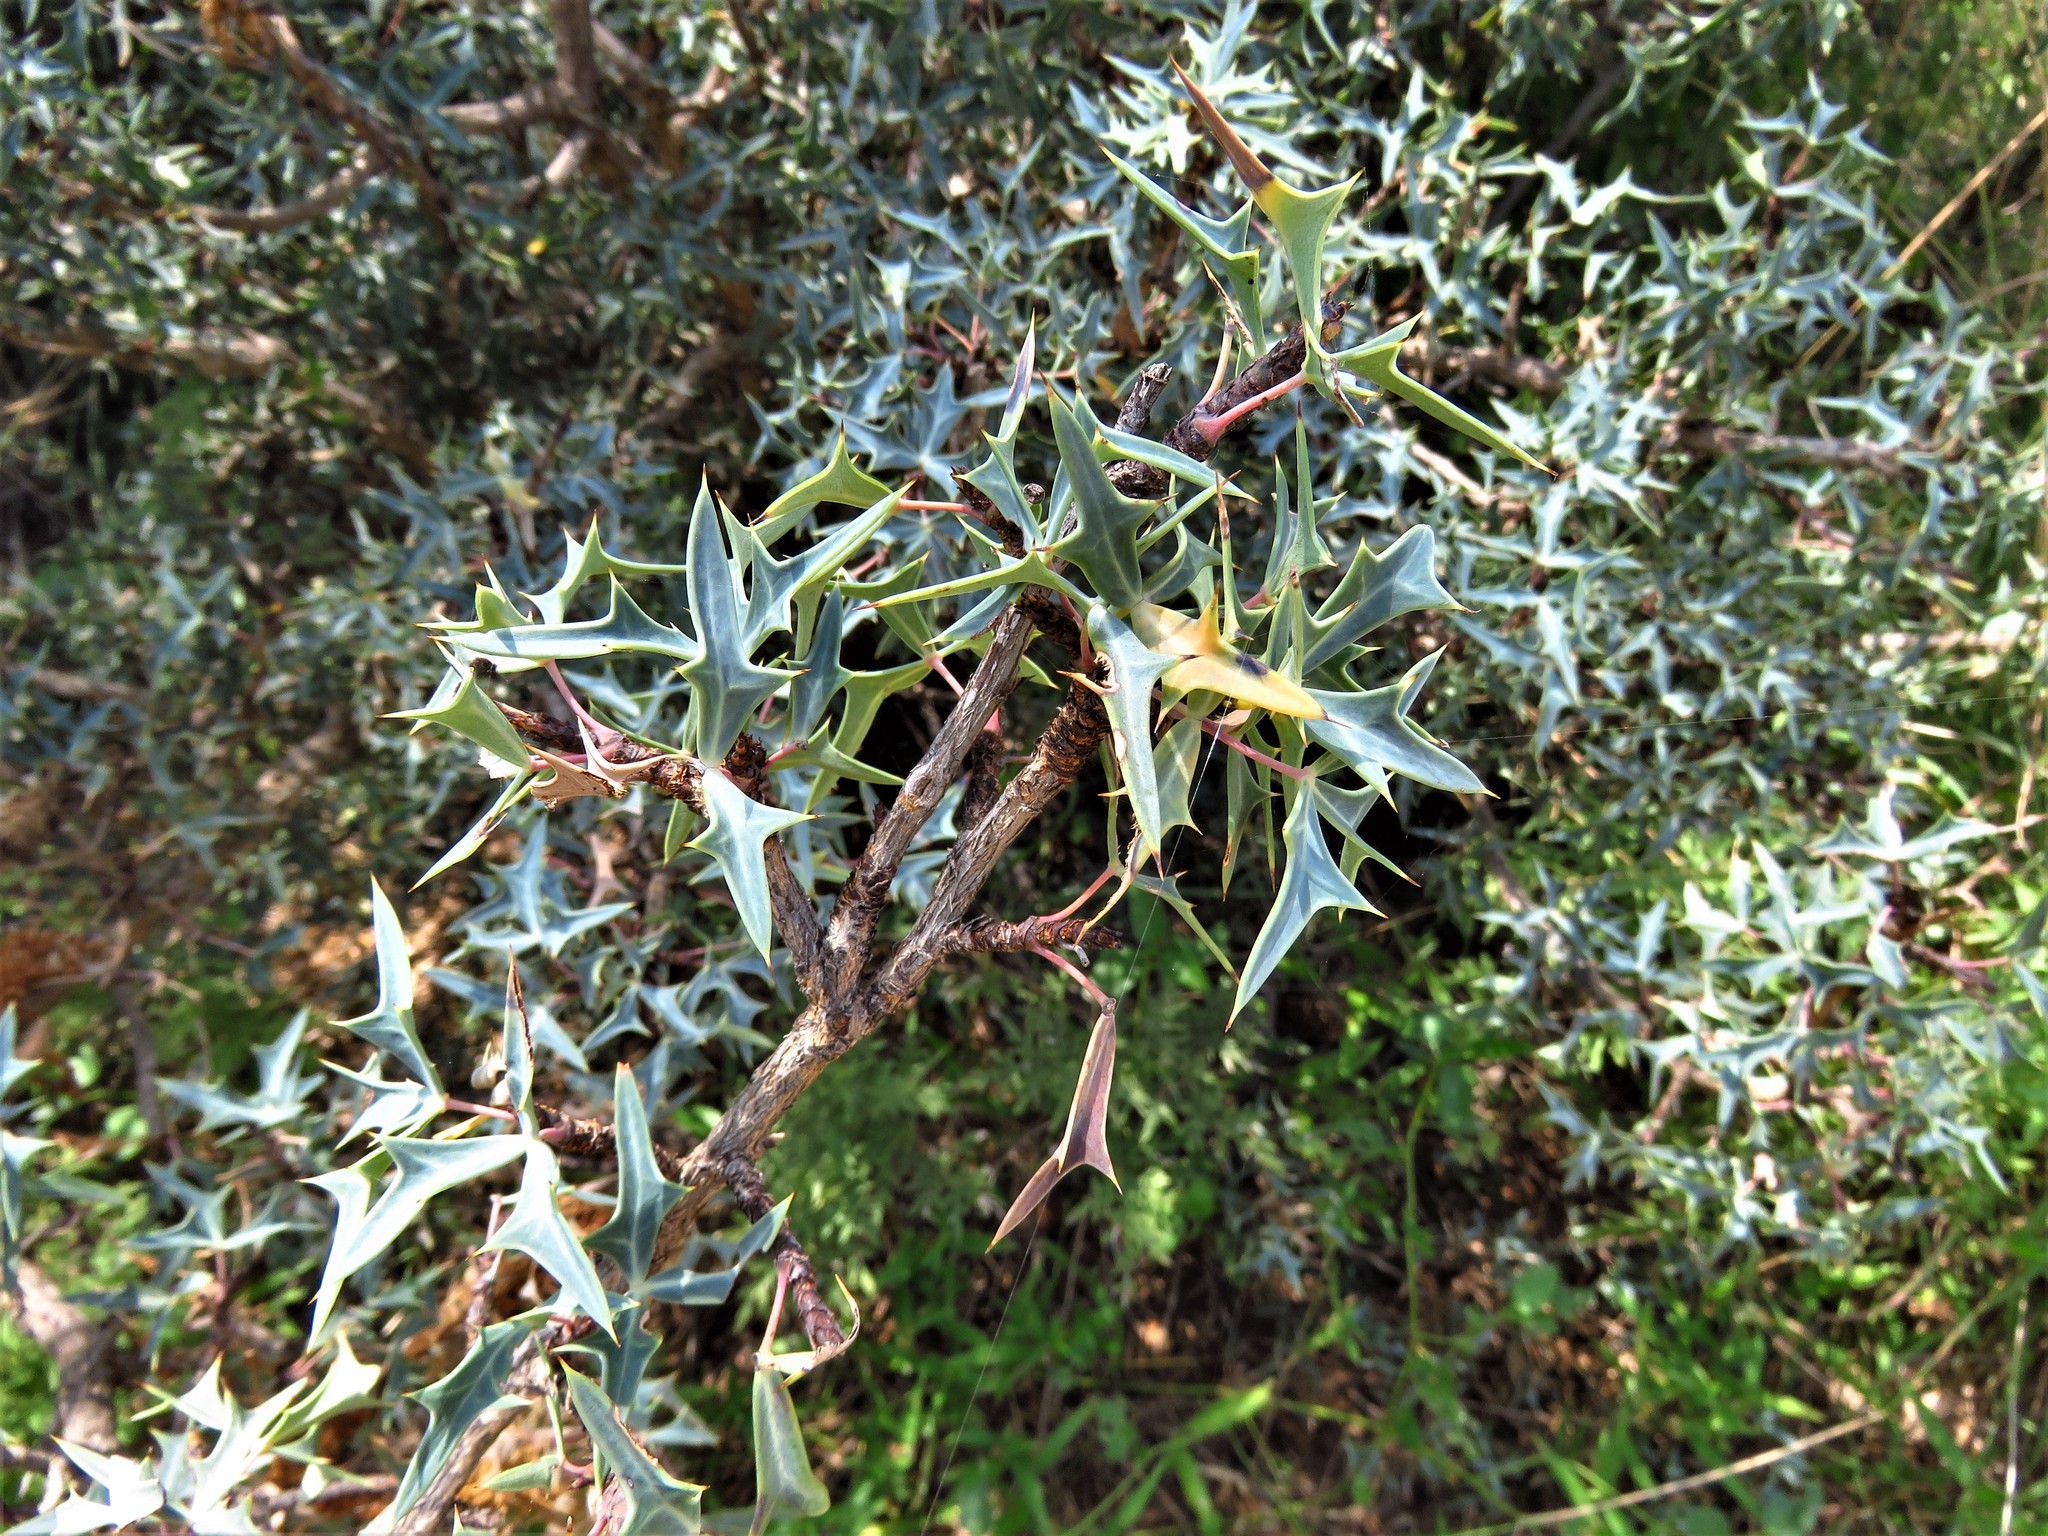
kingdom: Plantae
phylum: Tracheophyta
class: Magnoliopsida
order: Ranunculales
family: Berberidaceae
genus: Alloberberis
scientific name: Alloberberis trifoliolata
